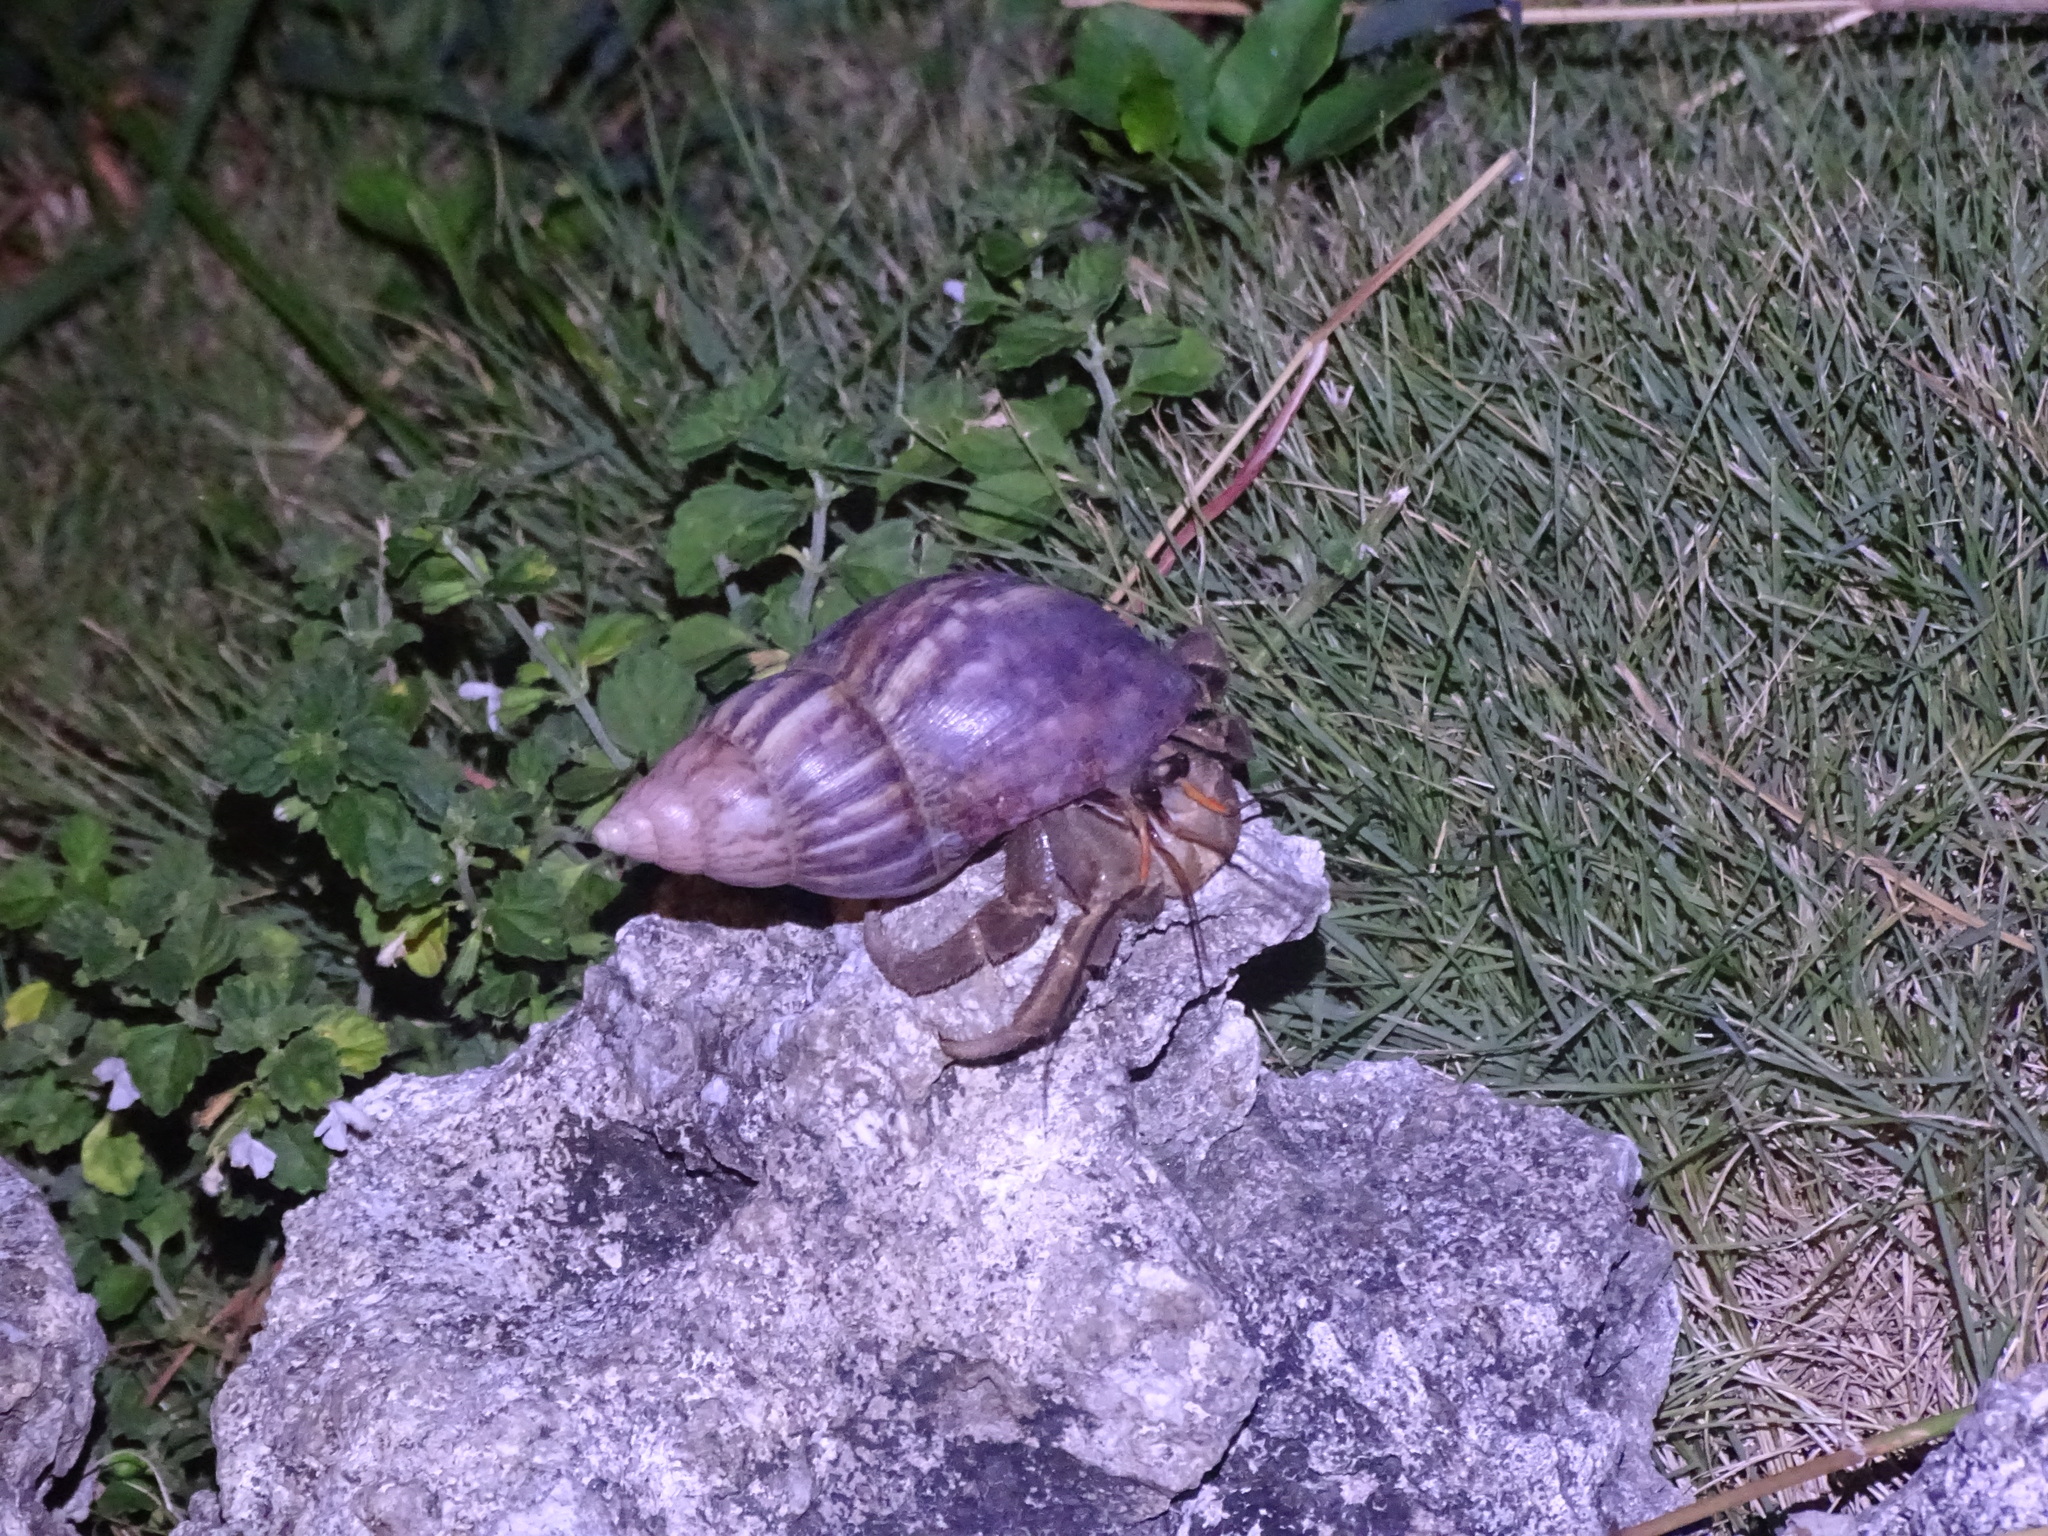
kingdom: Animalia
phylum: Arthropoda
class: Malacostraca
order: Decapoda
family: Coenobitidae
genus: Coenobita
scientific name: Coenobita cavipes
